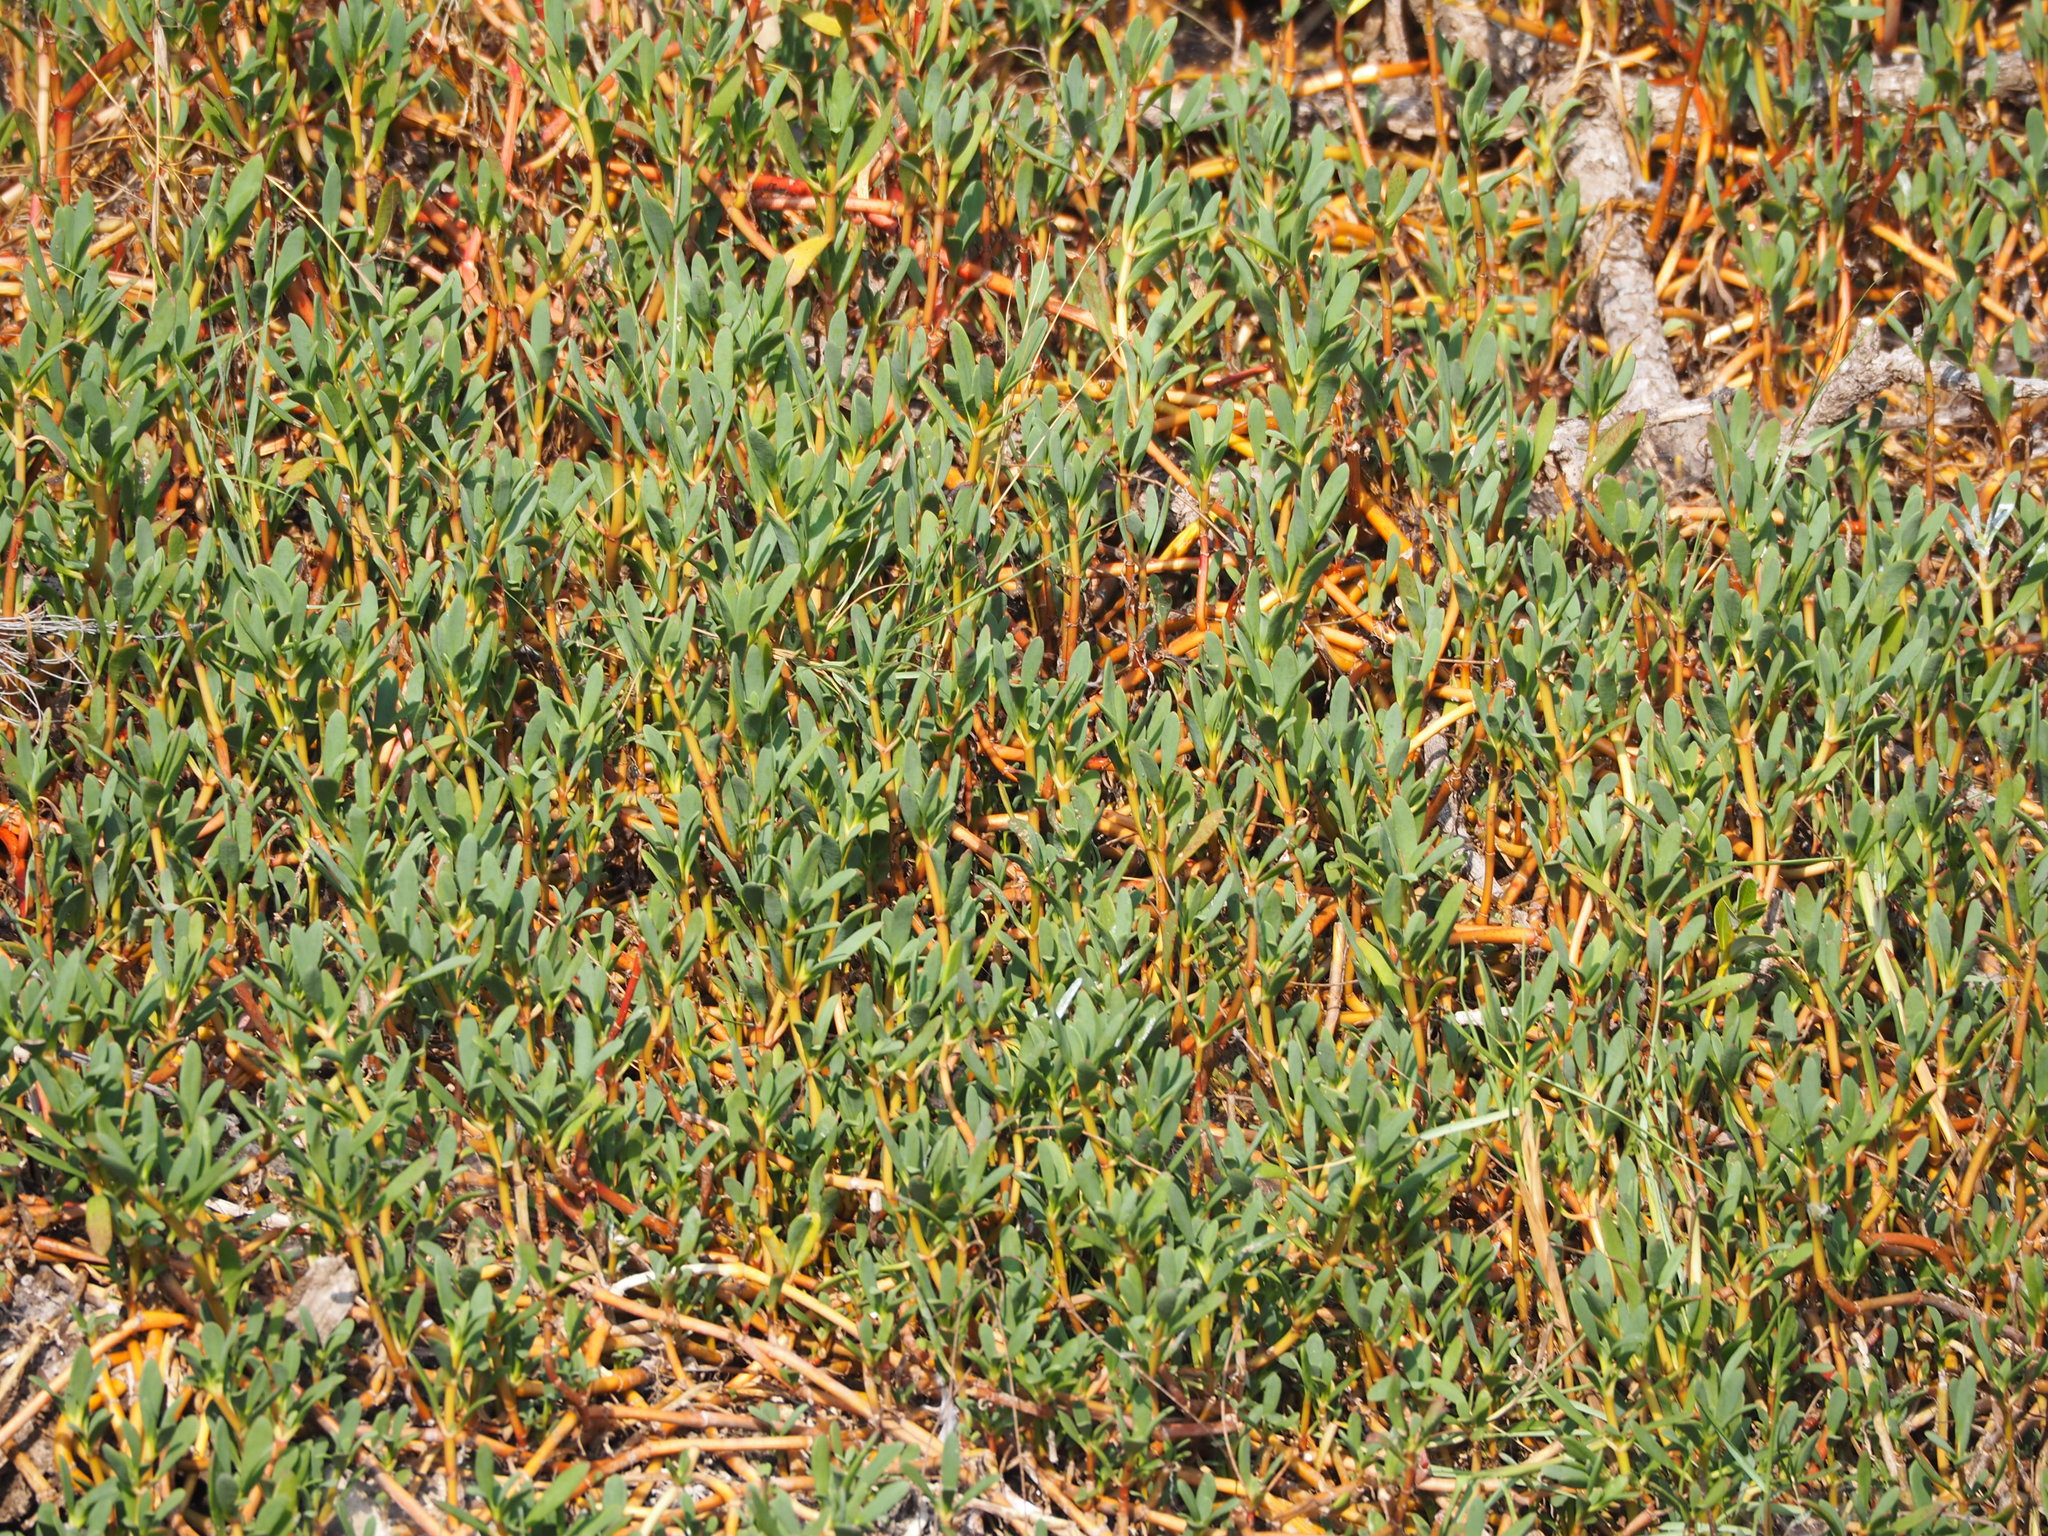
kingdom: Plantae
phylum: Tracheophyta
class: Magnoliopsida
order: Caryophyllales
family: Aizoaceae
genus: Sesuvium
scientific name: Sesuvium portulacastrum
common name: Sea-purslane
